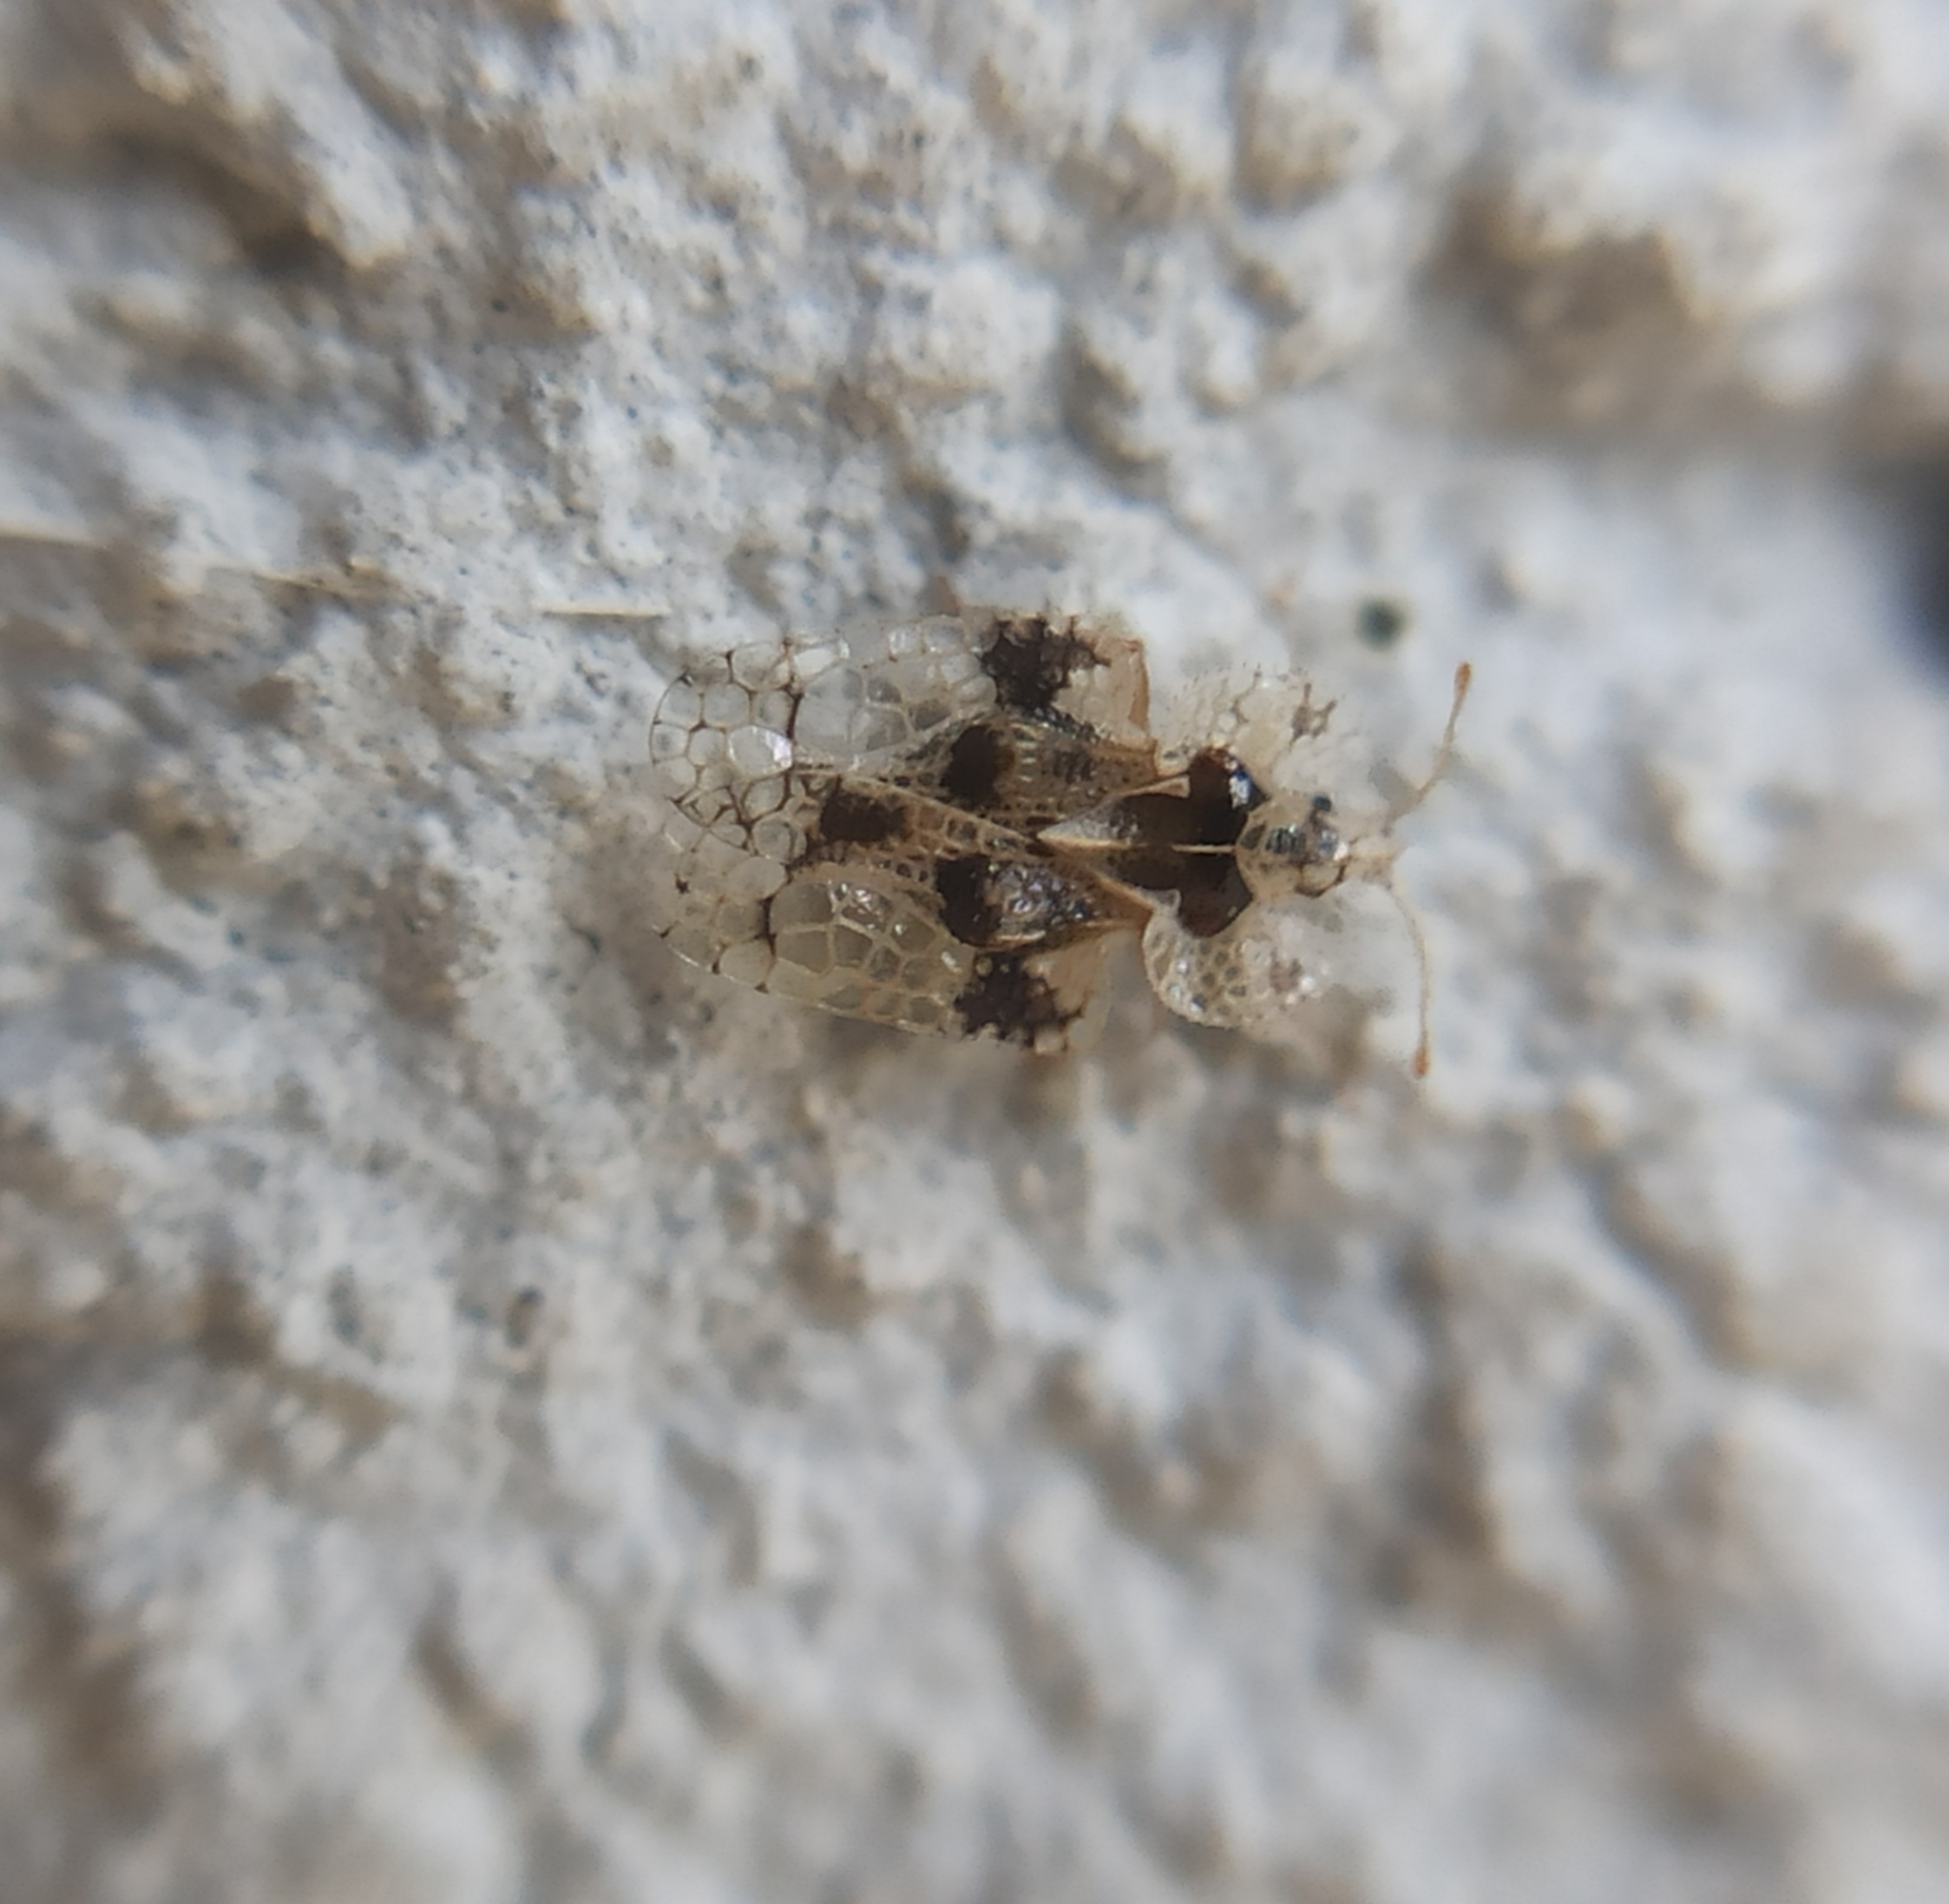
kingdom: Animalia
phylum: Arthropoda
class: Insecta
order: Hemiptera
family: Tingidae
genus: Corythucha
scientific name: Corythucha arcuata
